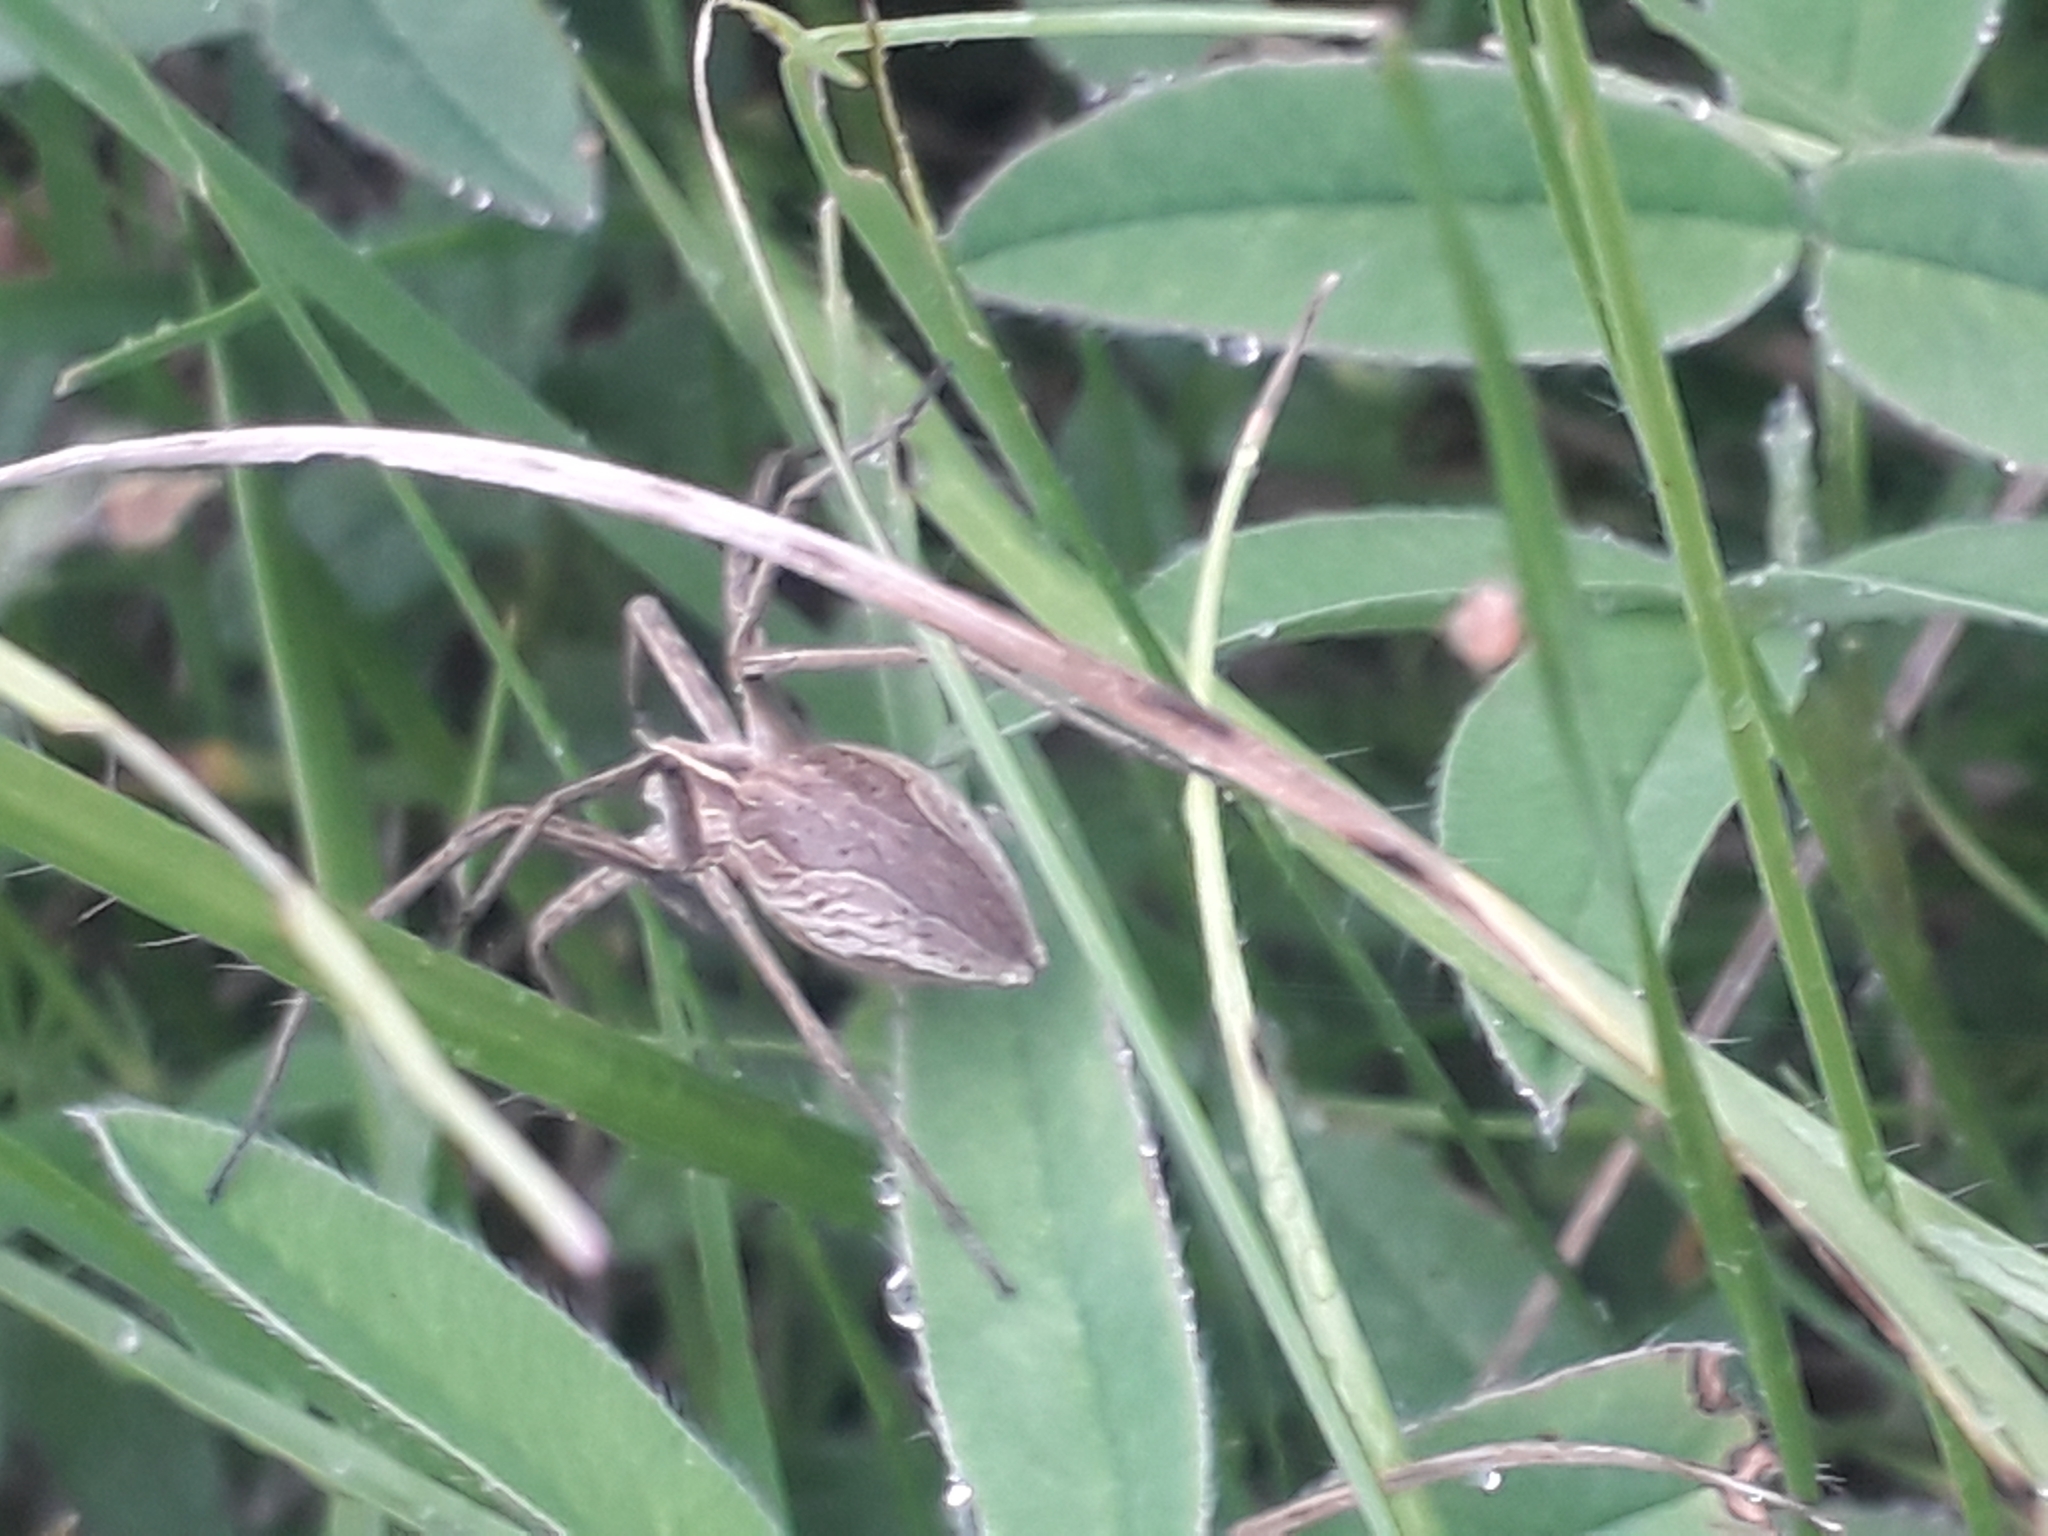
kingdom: Animalia
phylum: Arthropoda
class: Arachnida
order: Araneae
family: Pisauridae
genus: Pisaura
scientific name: Pisaura mirabilis
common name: Tent spider
